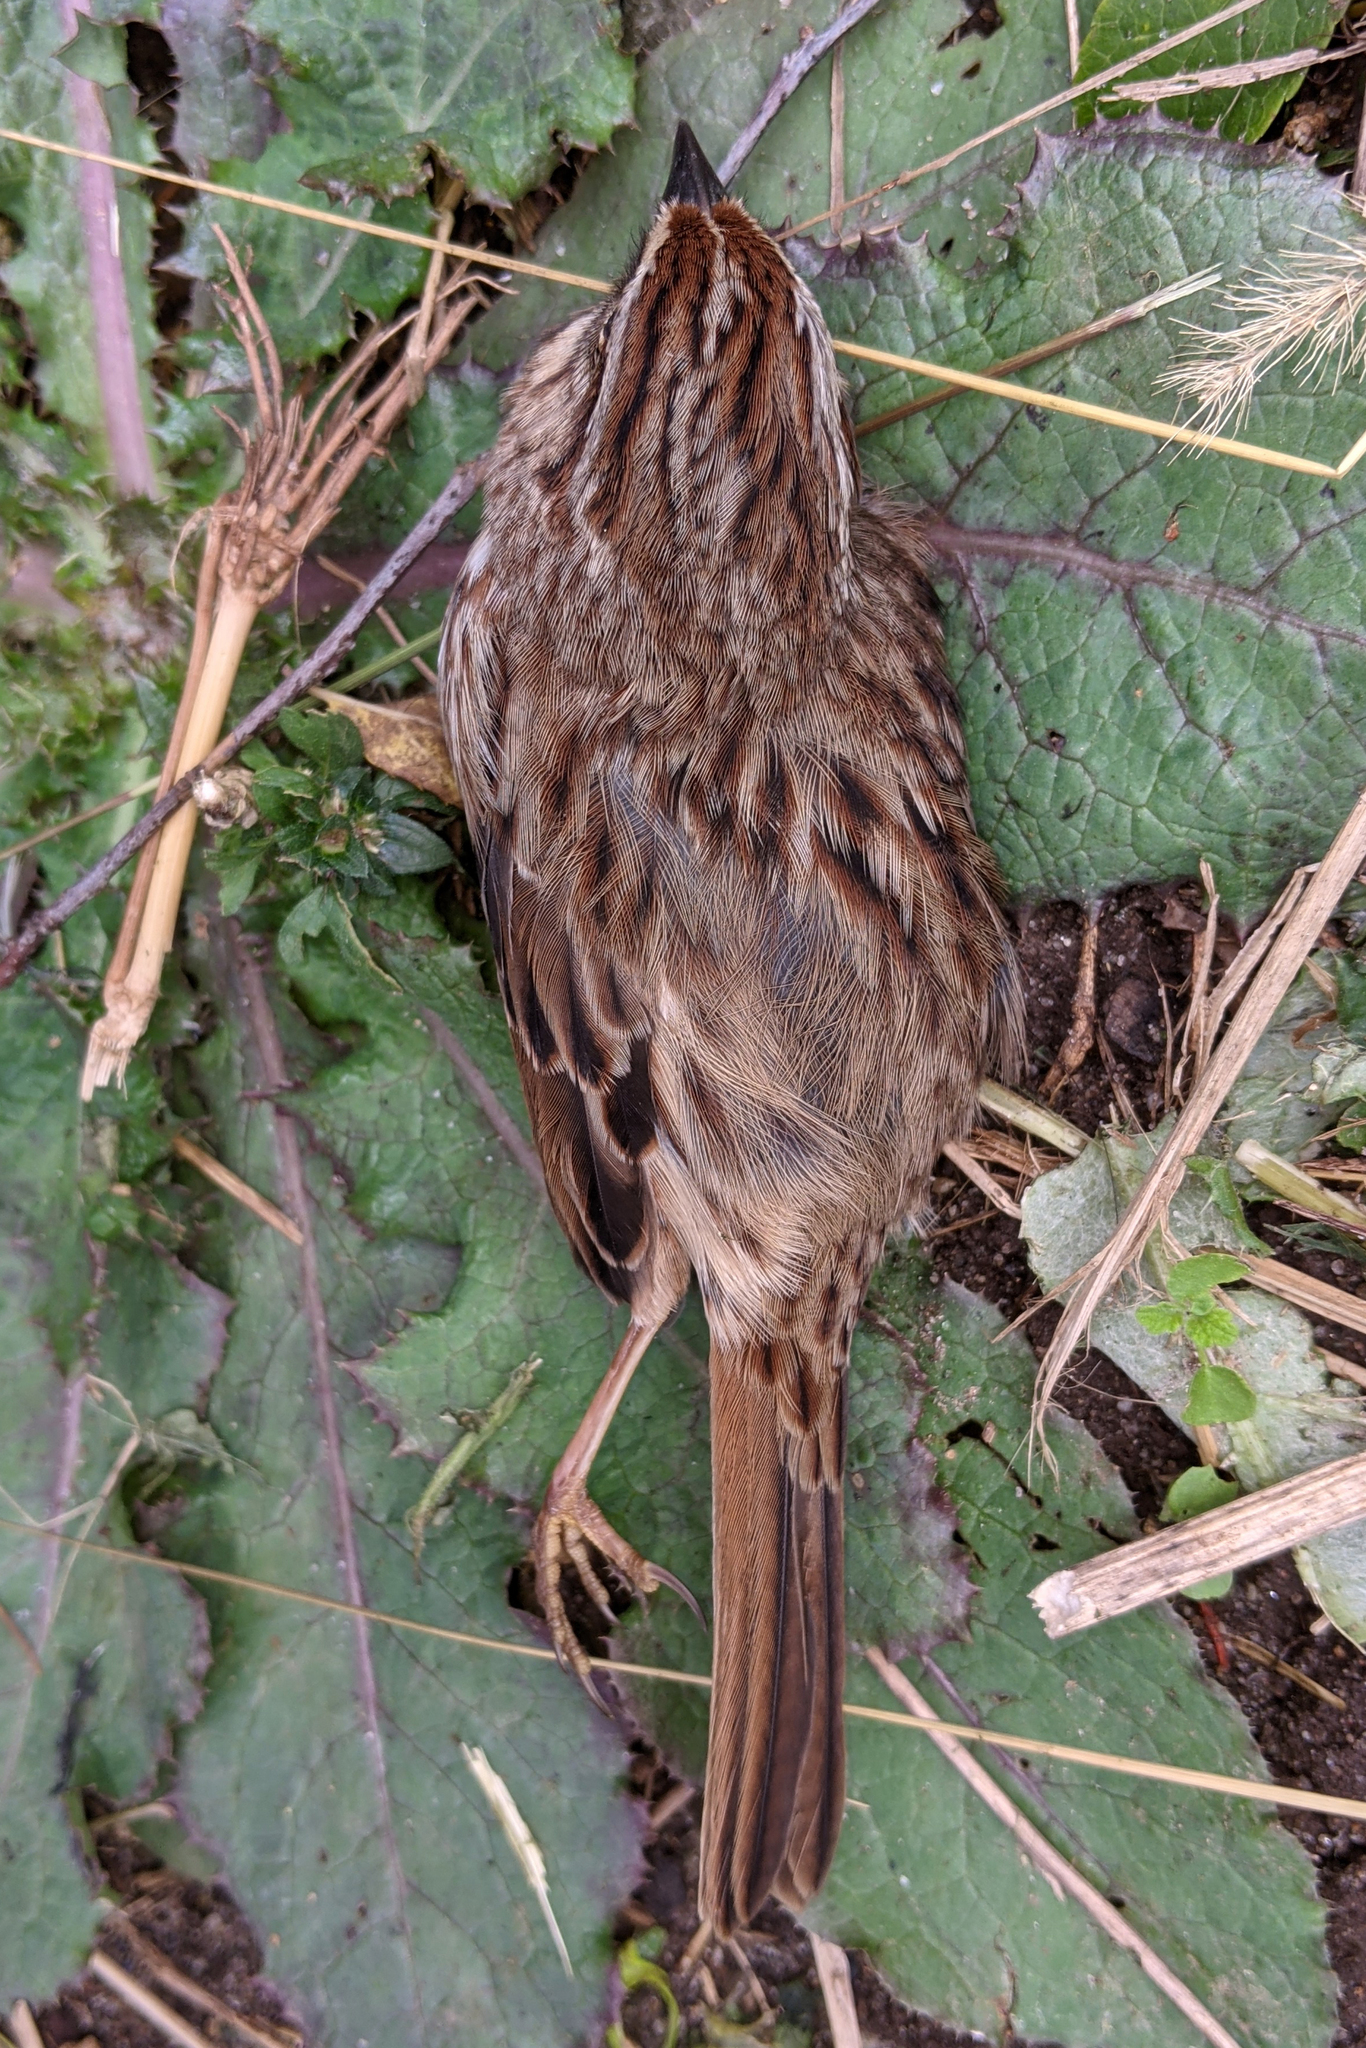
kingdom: Animalia
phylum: Chordata
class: Aves
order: Passeriformes
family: Passerellidae
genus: Melospiza
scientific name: Melospiza melodia
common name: Song sparrow
